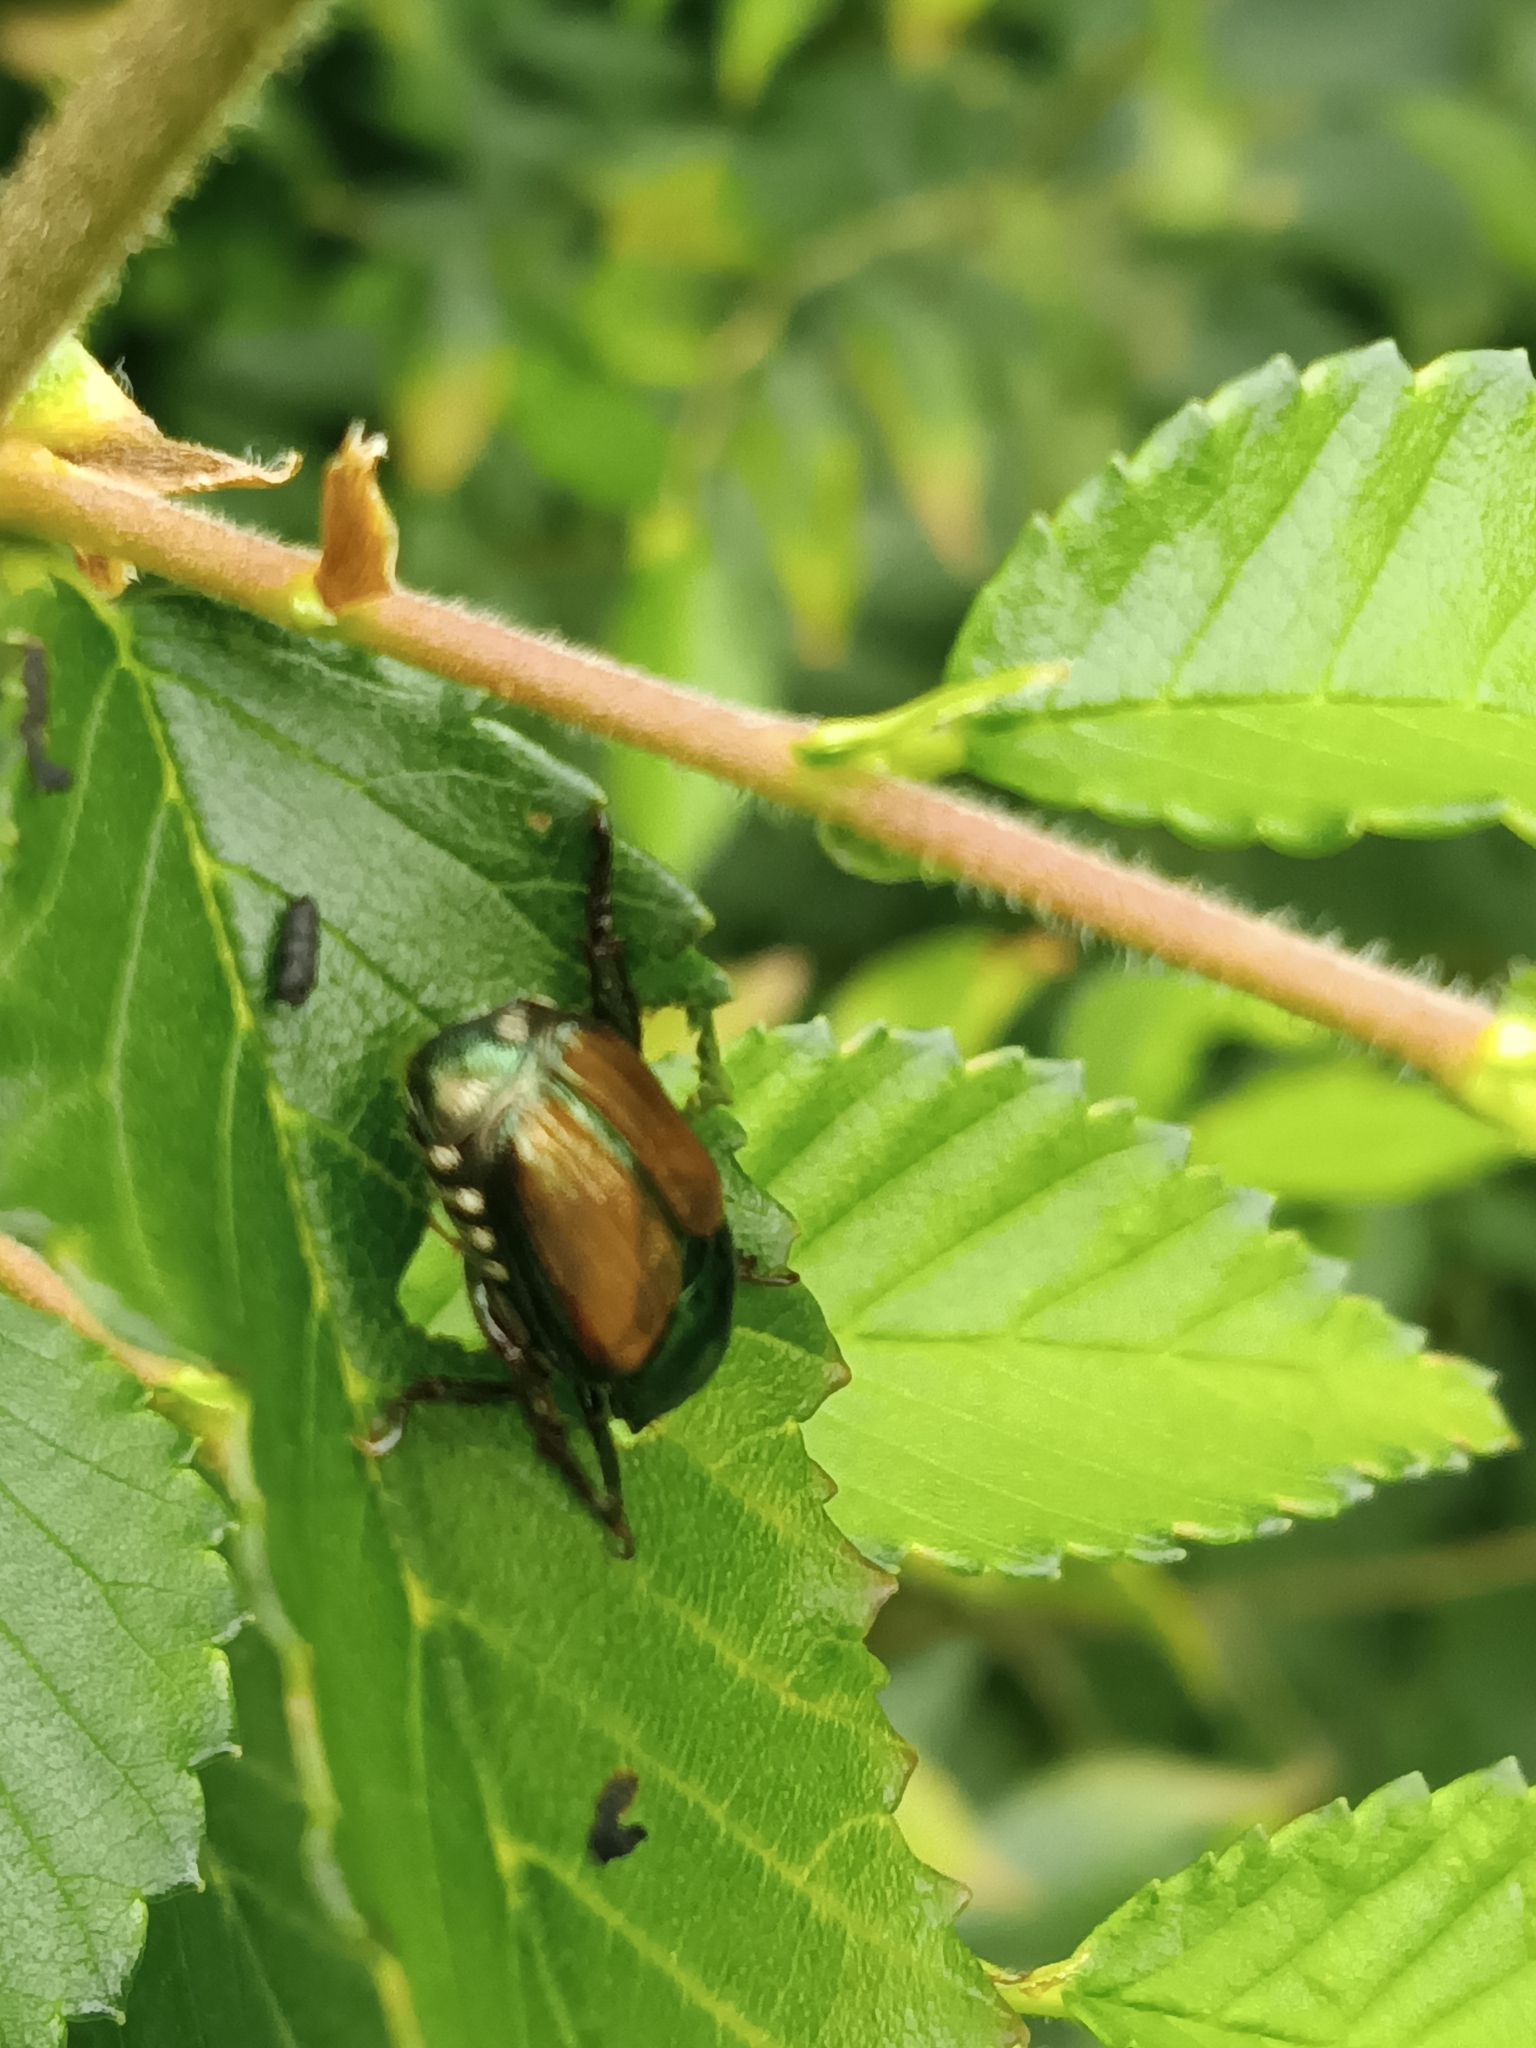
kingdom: Animalia
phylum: Arthropoda
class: Insecta
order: Coleoptera
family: Scarabaeidae
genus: Popillia
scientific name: Popillia japonica
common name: Japanese beetle
